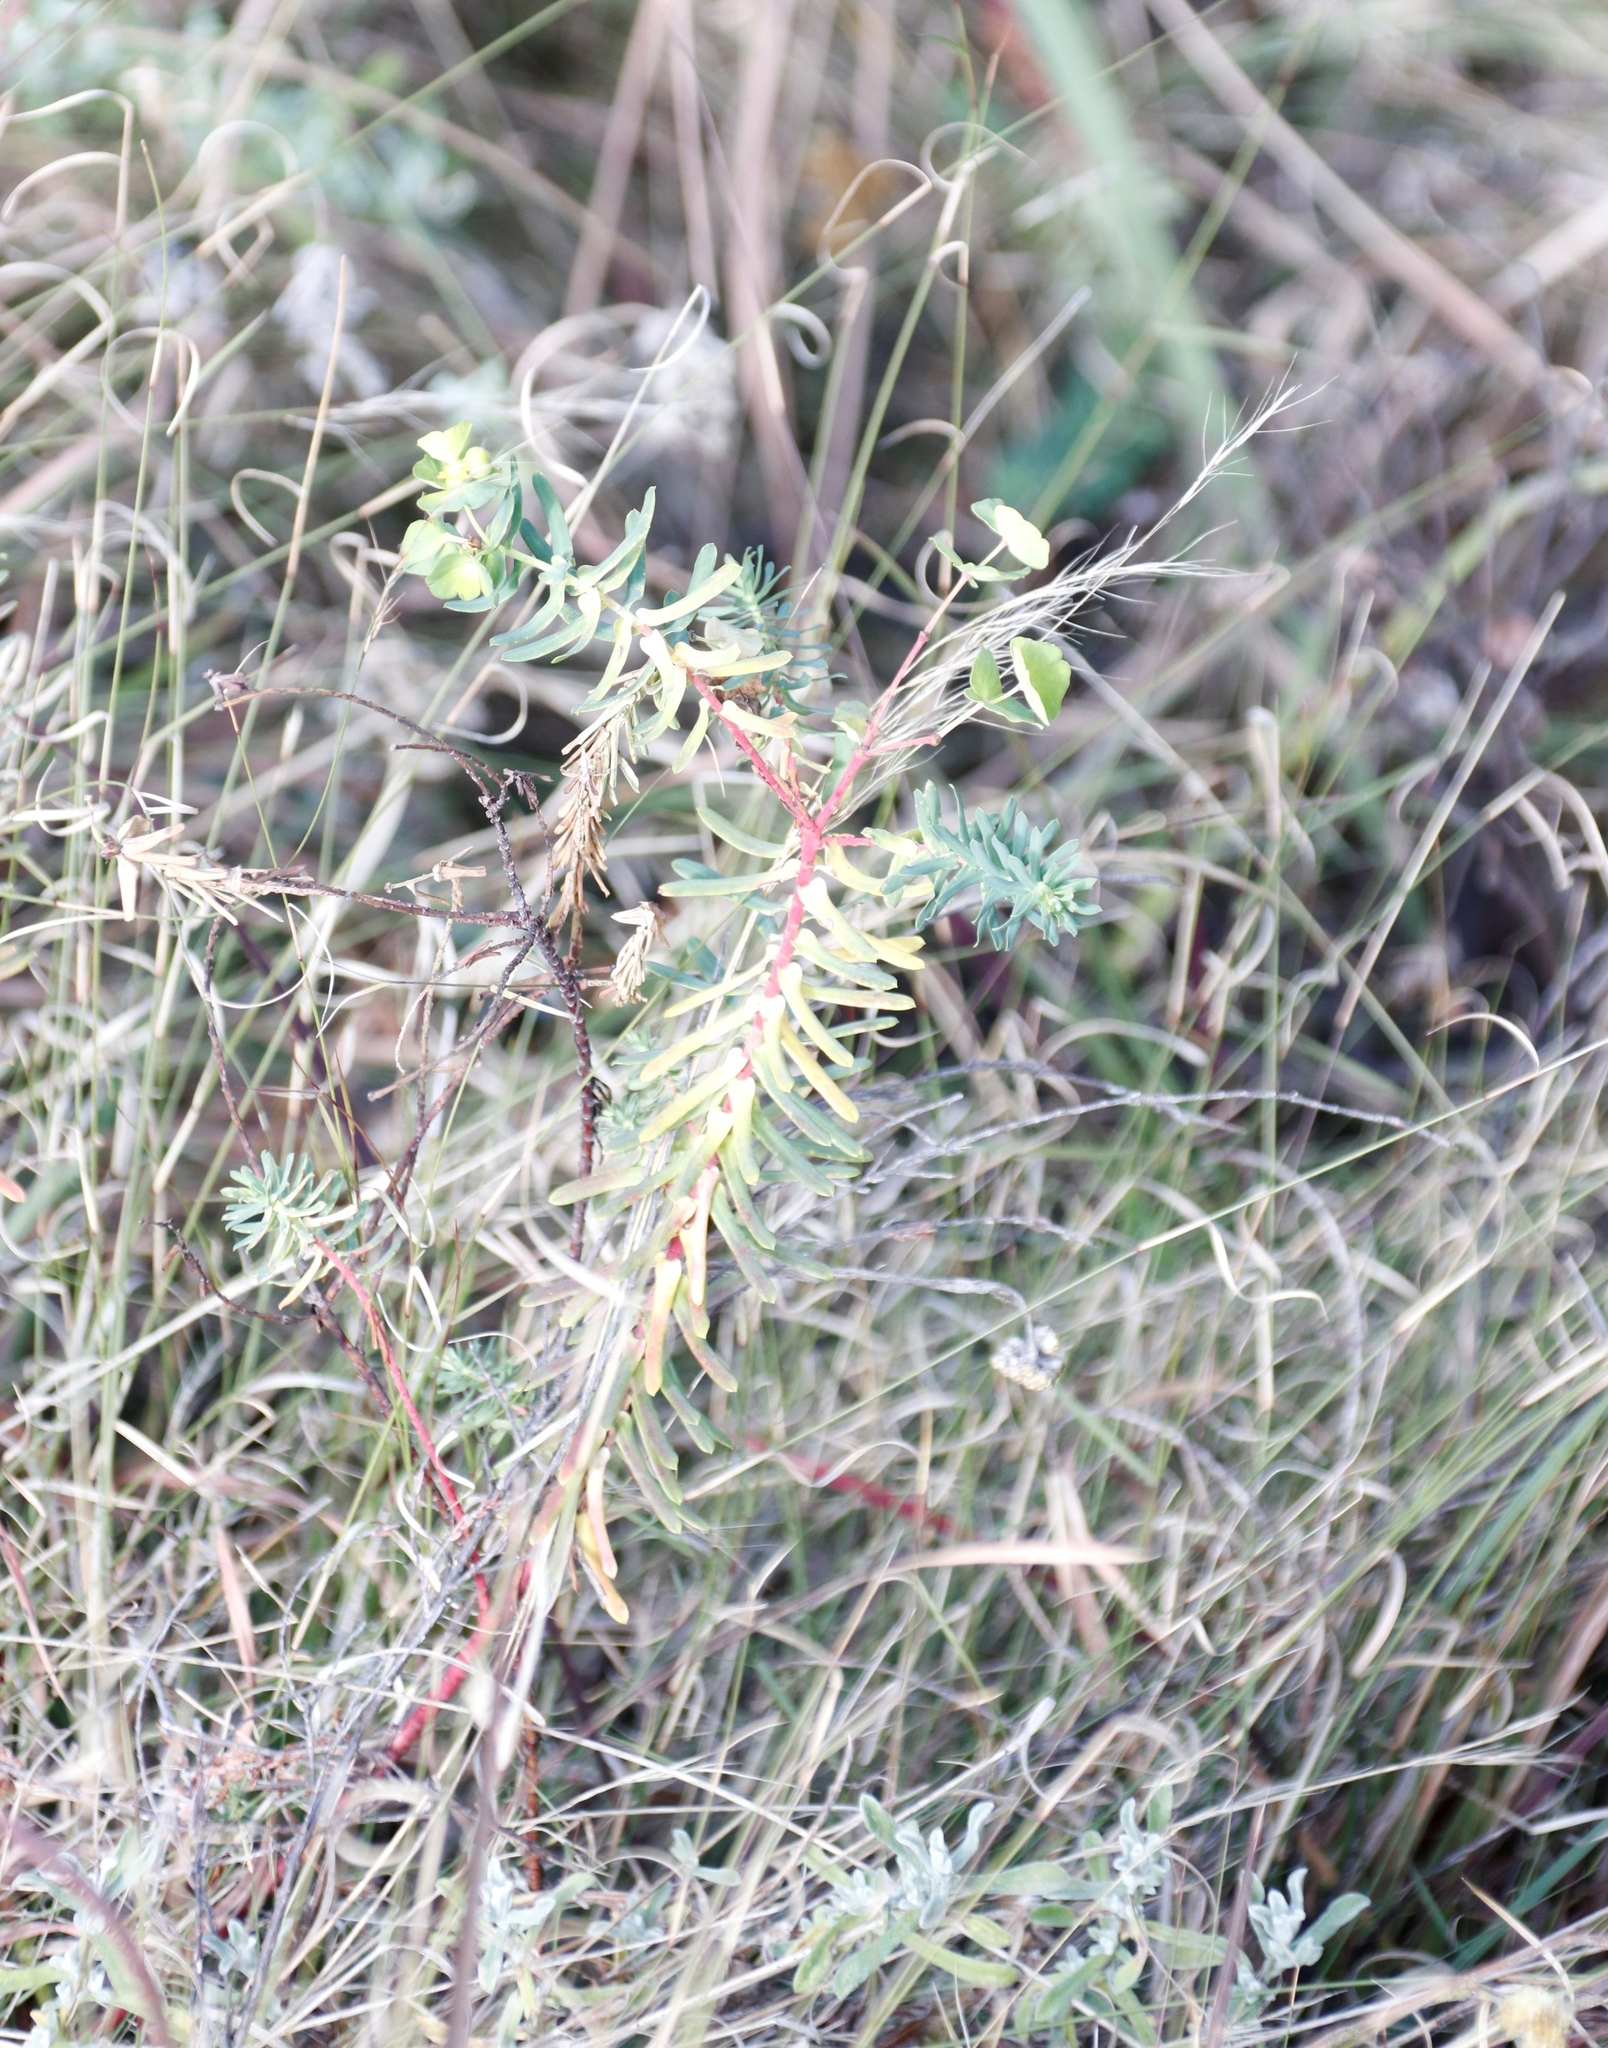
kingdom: Plantae
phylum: Tracheophyta
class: Magnoliopsida
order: Malpighiales
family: Euphorbiaceae
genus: Euphorbia
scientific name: Euphorbia natalensis
